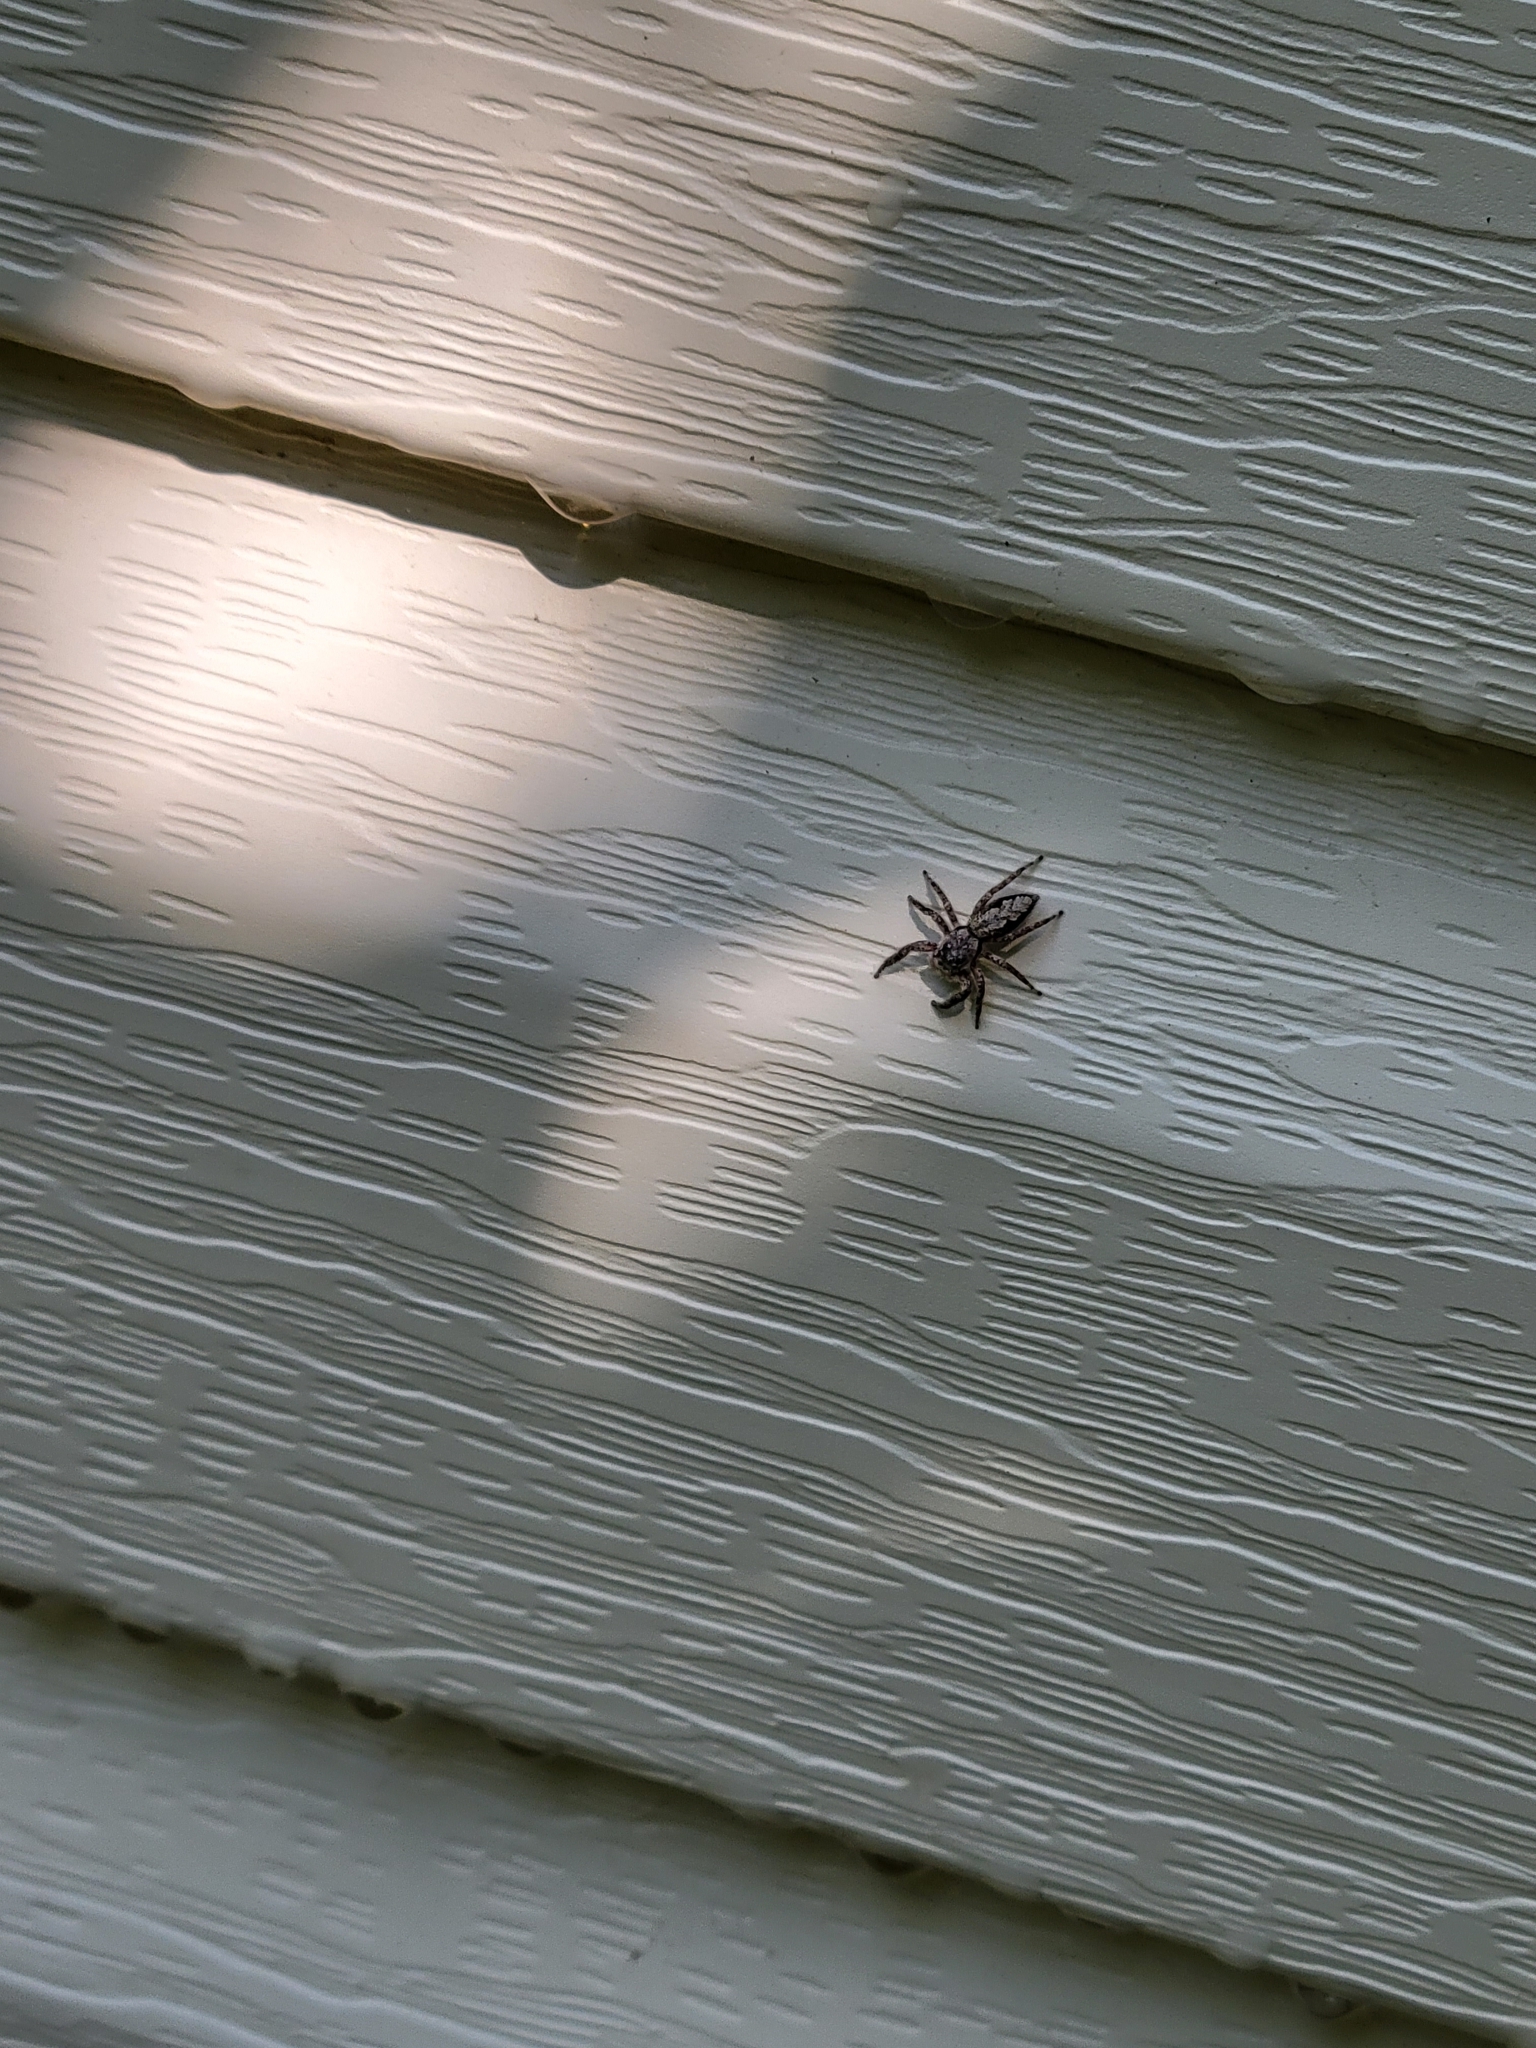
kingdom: Animalia
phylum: Arthropoda
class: Arachnida
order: Araneae
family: Salticidae
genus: Platycryptus
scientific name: Platycryptus undatus
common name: Tan jumping spider
